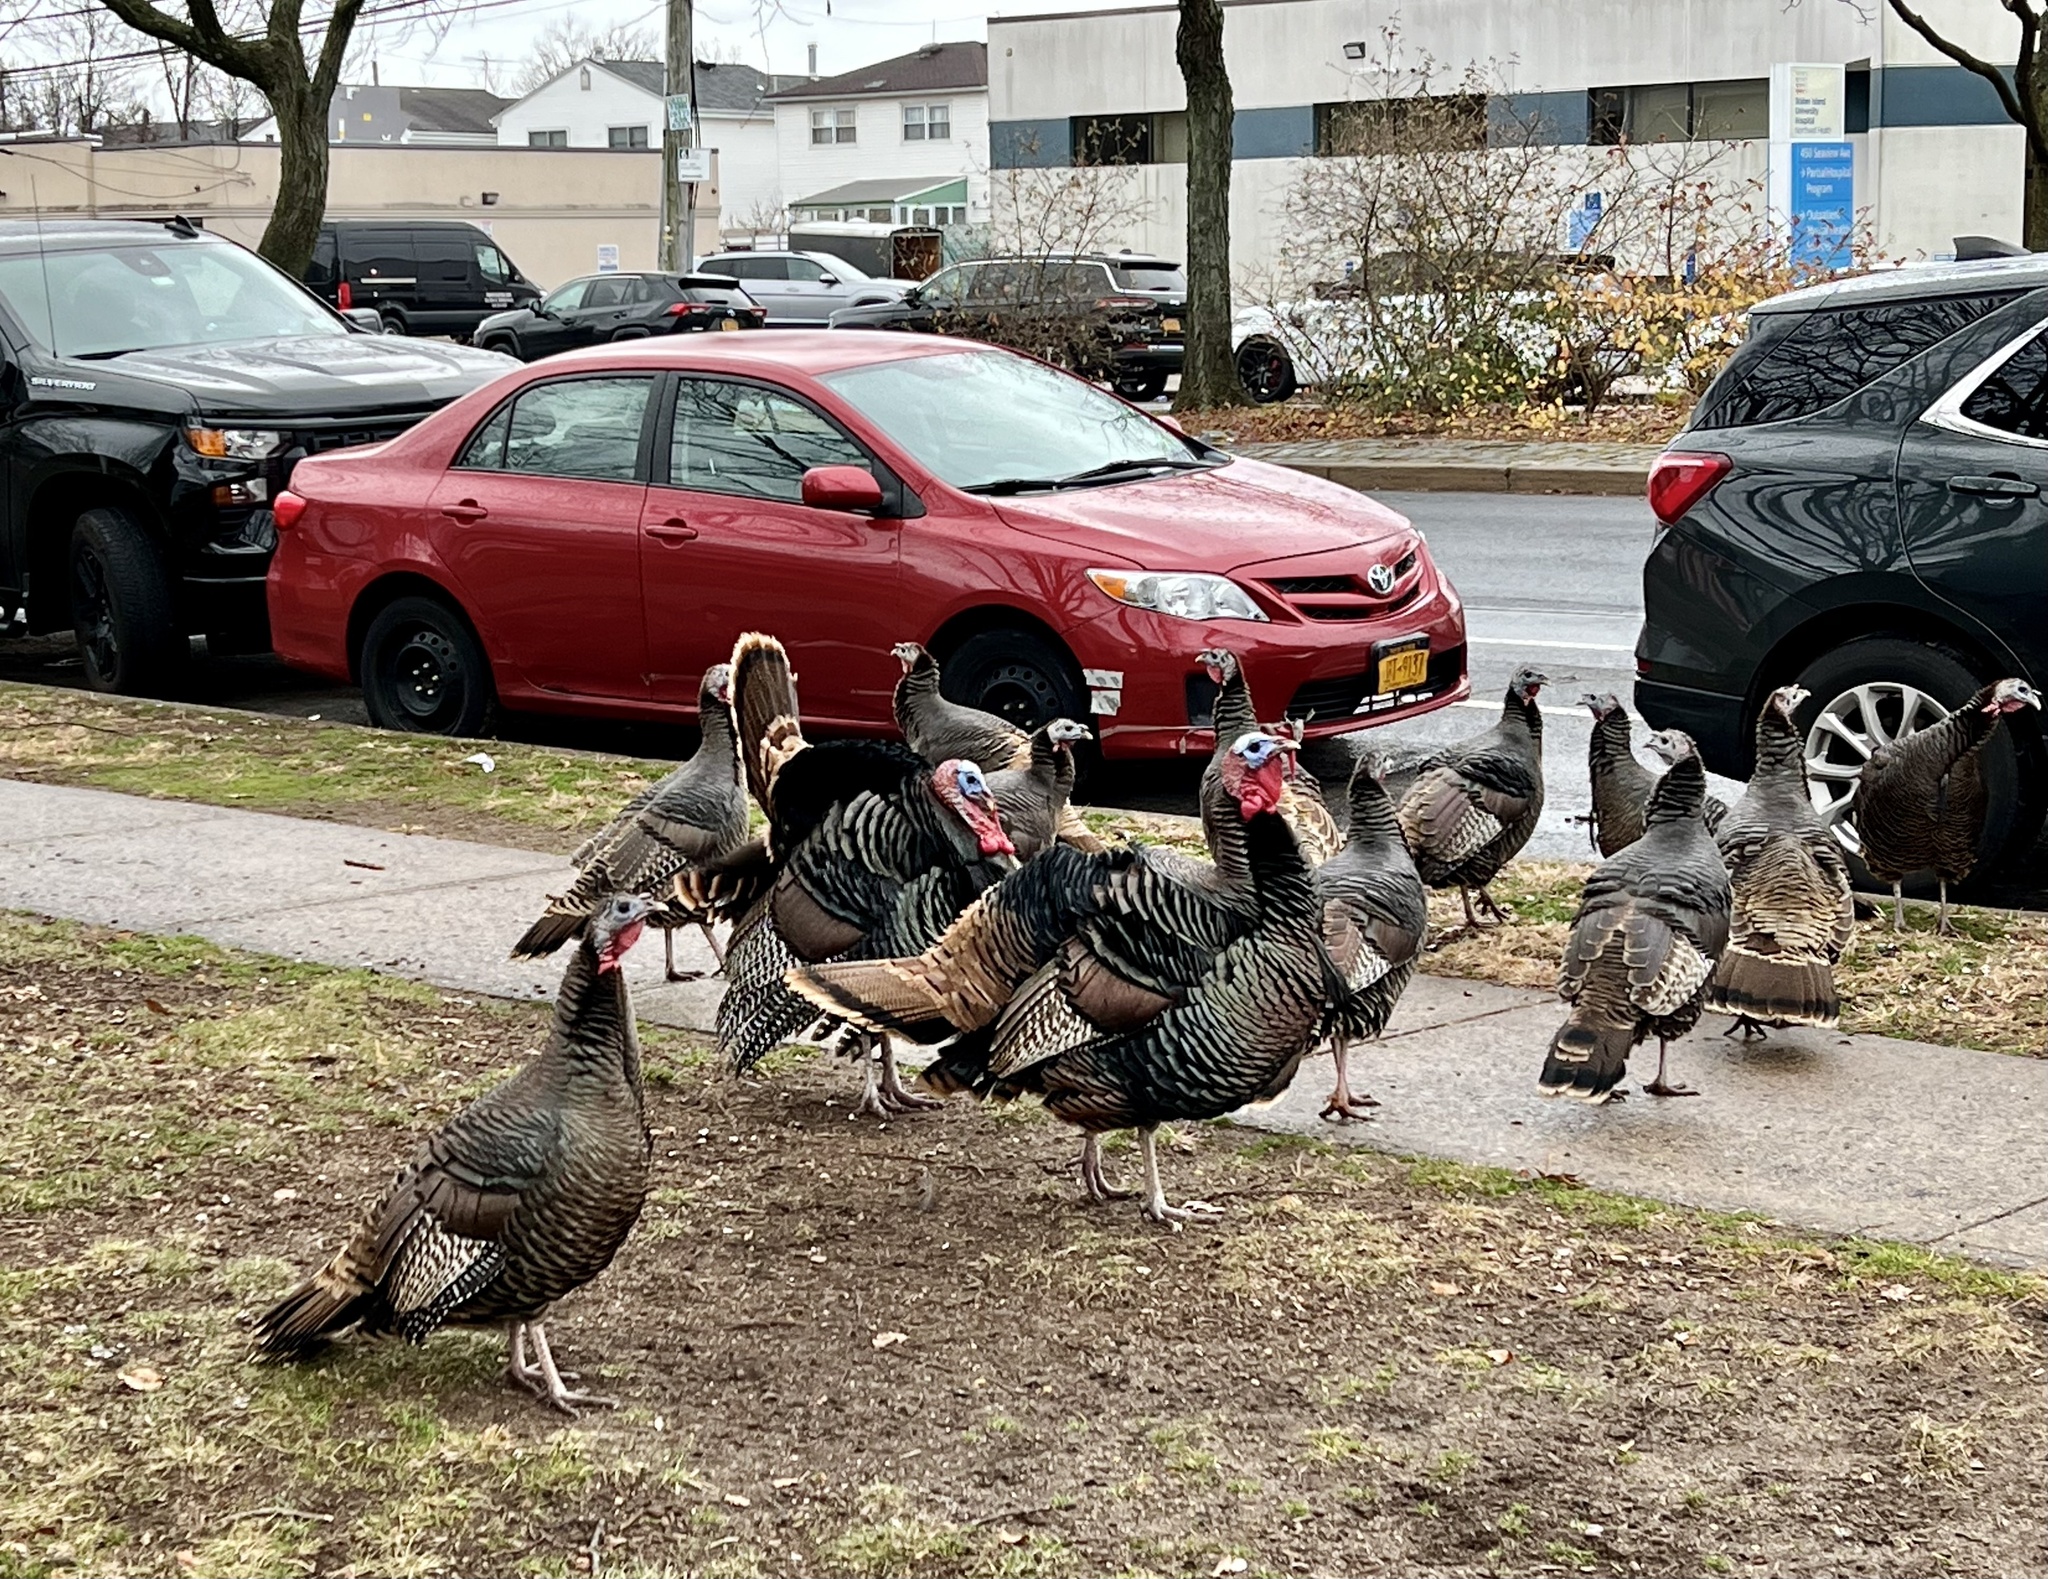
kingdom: Animalia
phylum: Chordata
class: Aves
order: Galliformes
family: Phasianidae
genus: Meleagris
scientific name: Meleagris gallopavo
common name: Wild turkey
